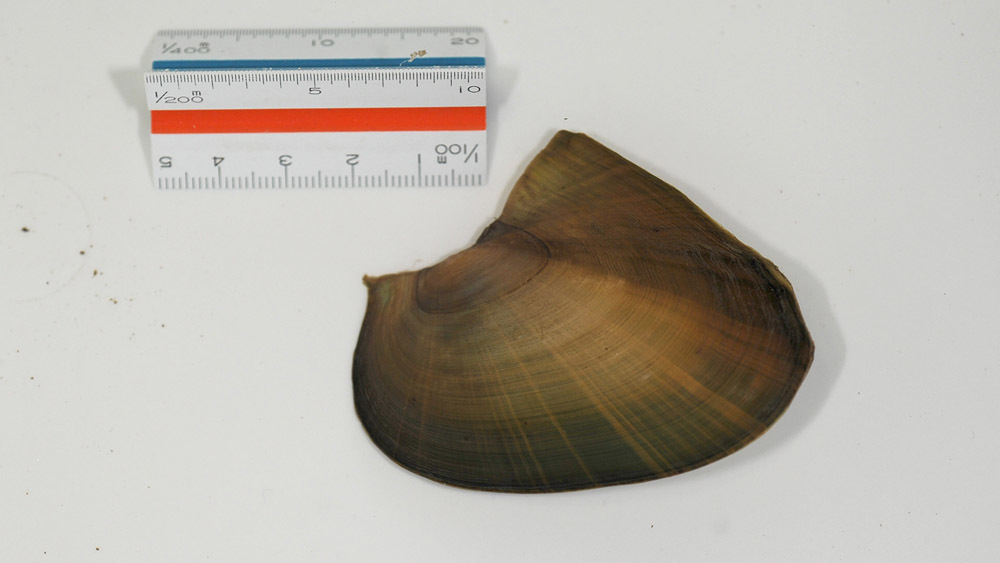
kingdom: Animalia
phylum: Mollusca
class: Bivalvia
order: Unionida
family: Unionidae
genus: Cristaria
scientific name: Cristaria plicata
